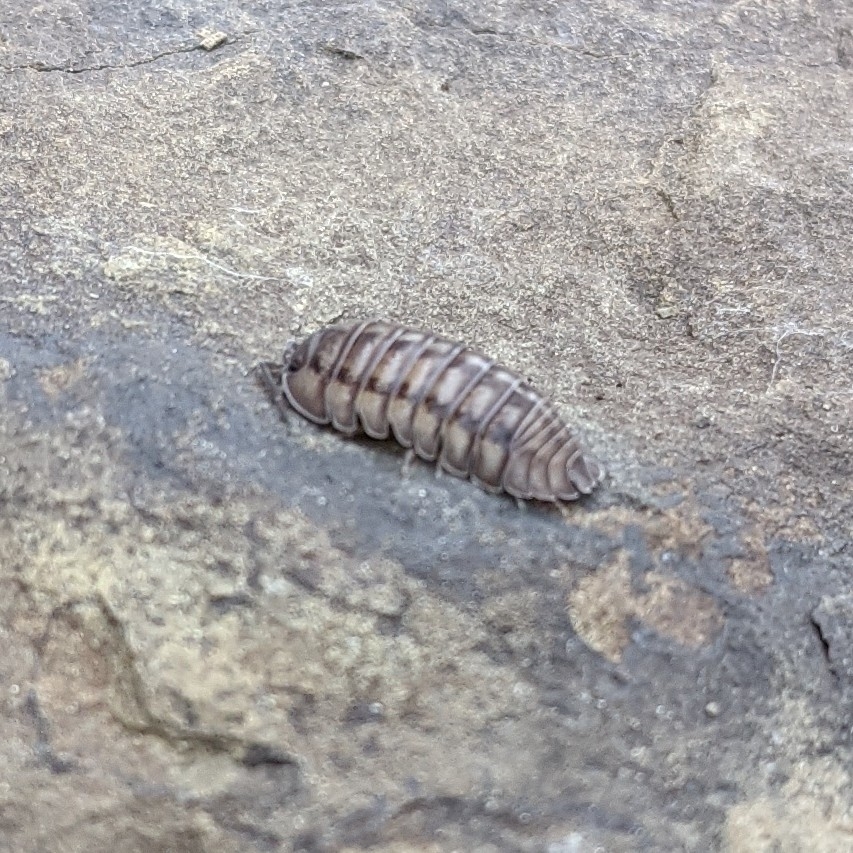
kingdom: Animalia
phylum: Arthropoda
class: Malacostraca
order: Isopoda
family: Armadillidiidae
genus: Armadillidium
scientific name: Armadillidium nasatum
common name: Isopod
